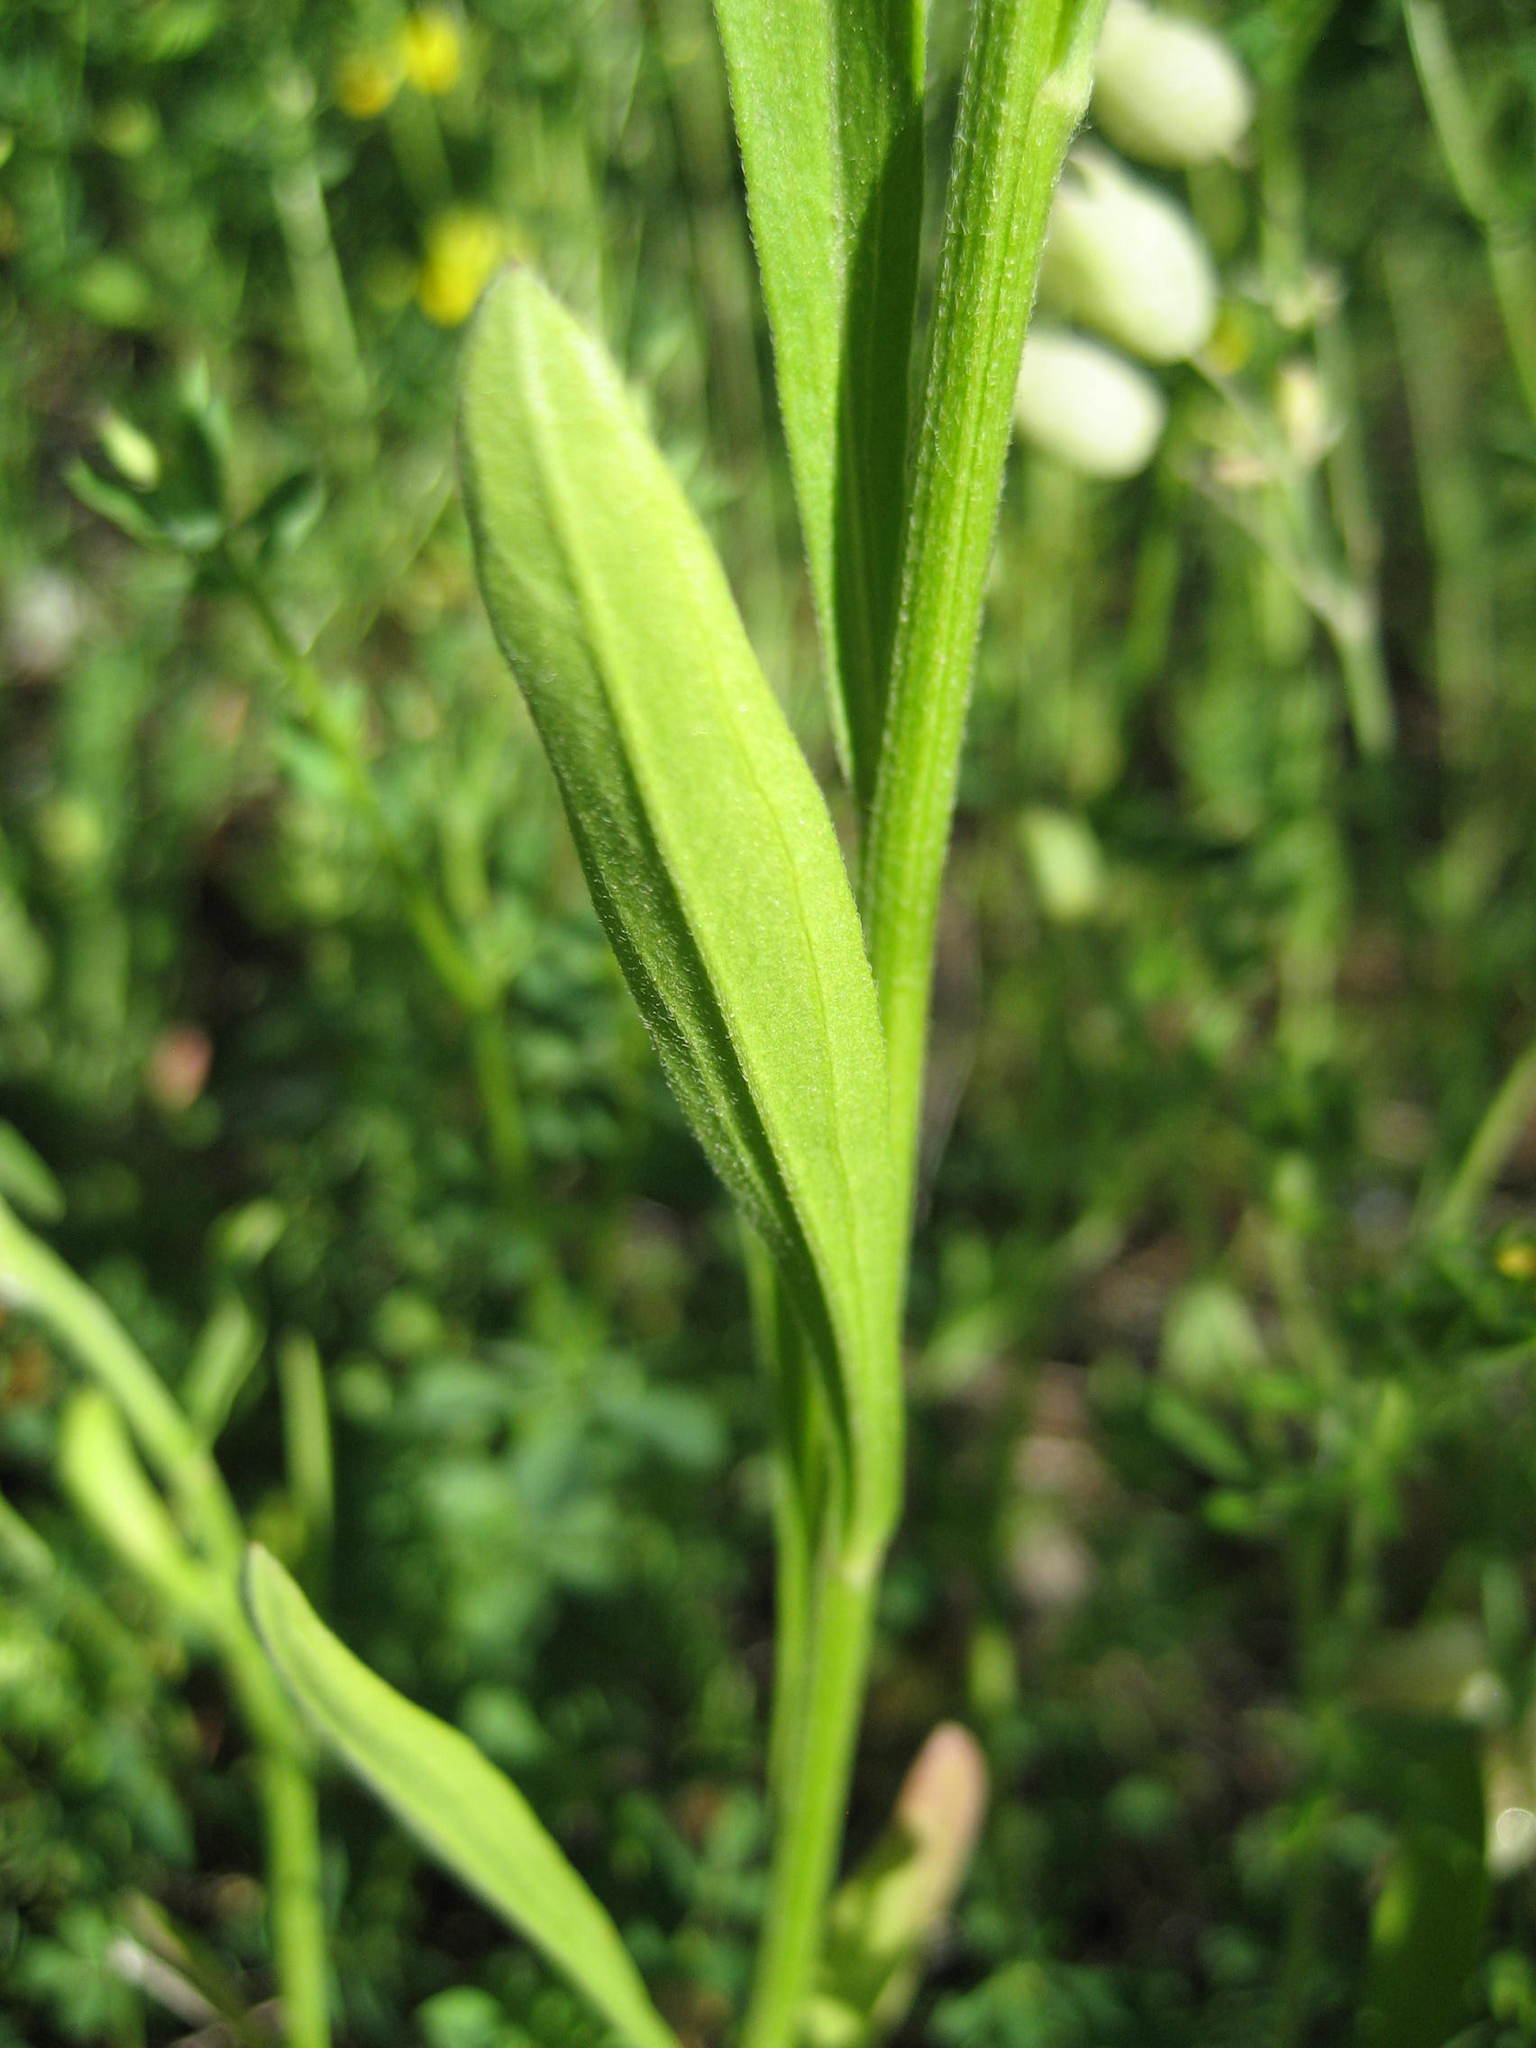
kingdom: Plantae
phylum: Tracheophyta
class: Magnoliopsida
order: Asterales
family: Asteraceae
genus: Erigeron
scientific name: Erigeron strigosus
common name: Common eastern fleabane
